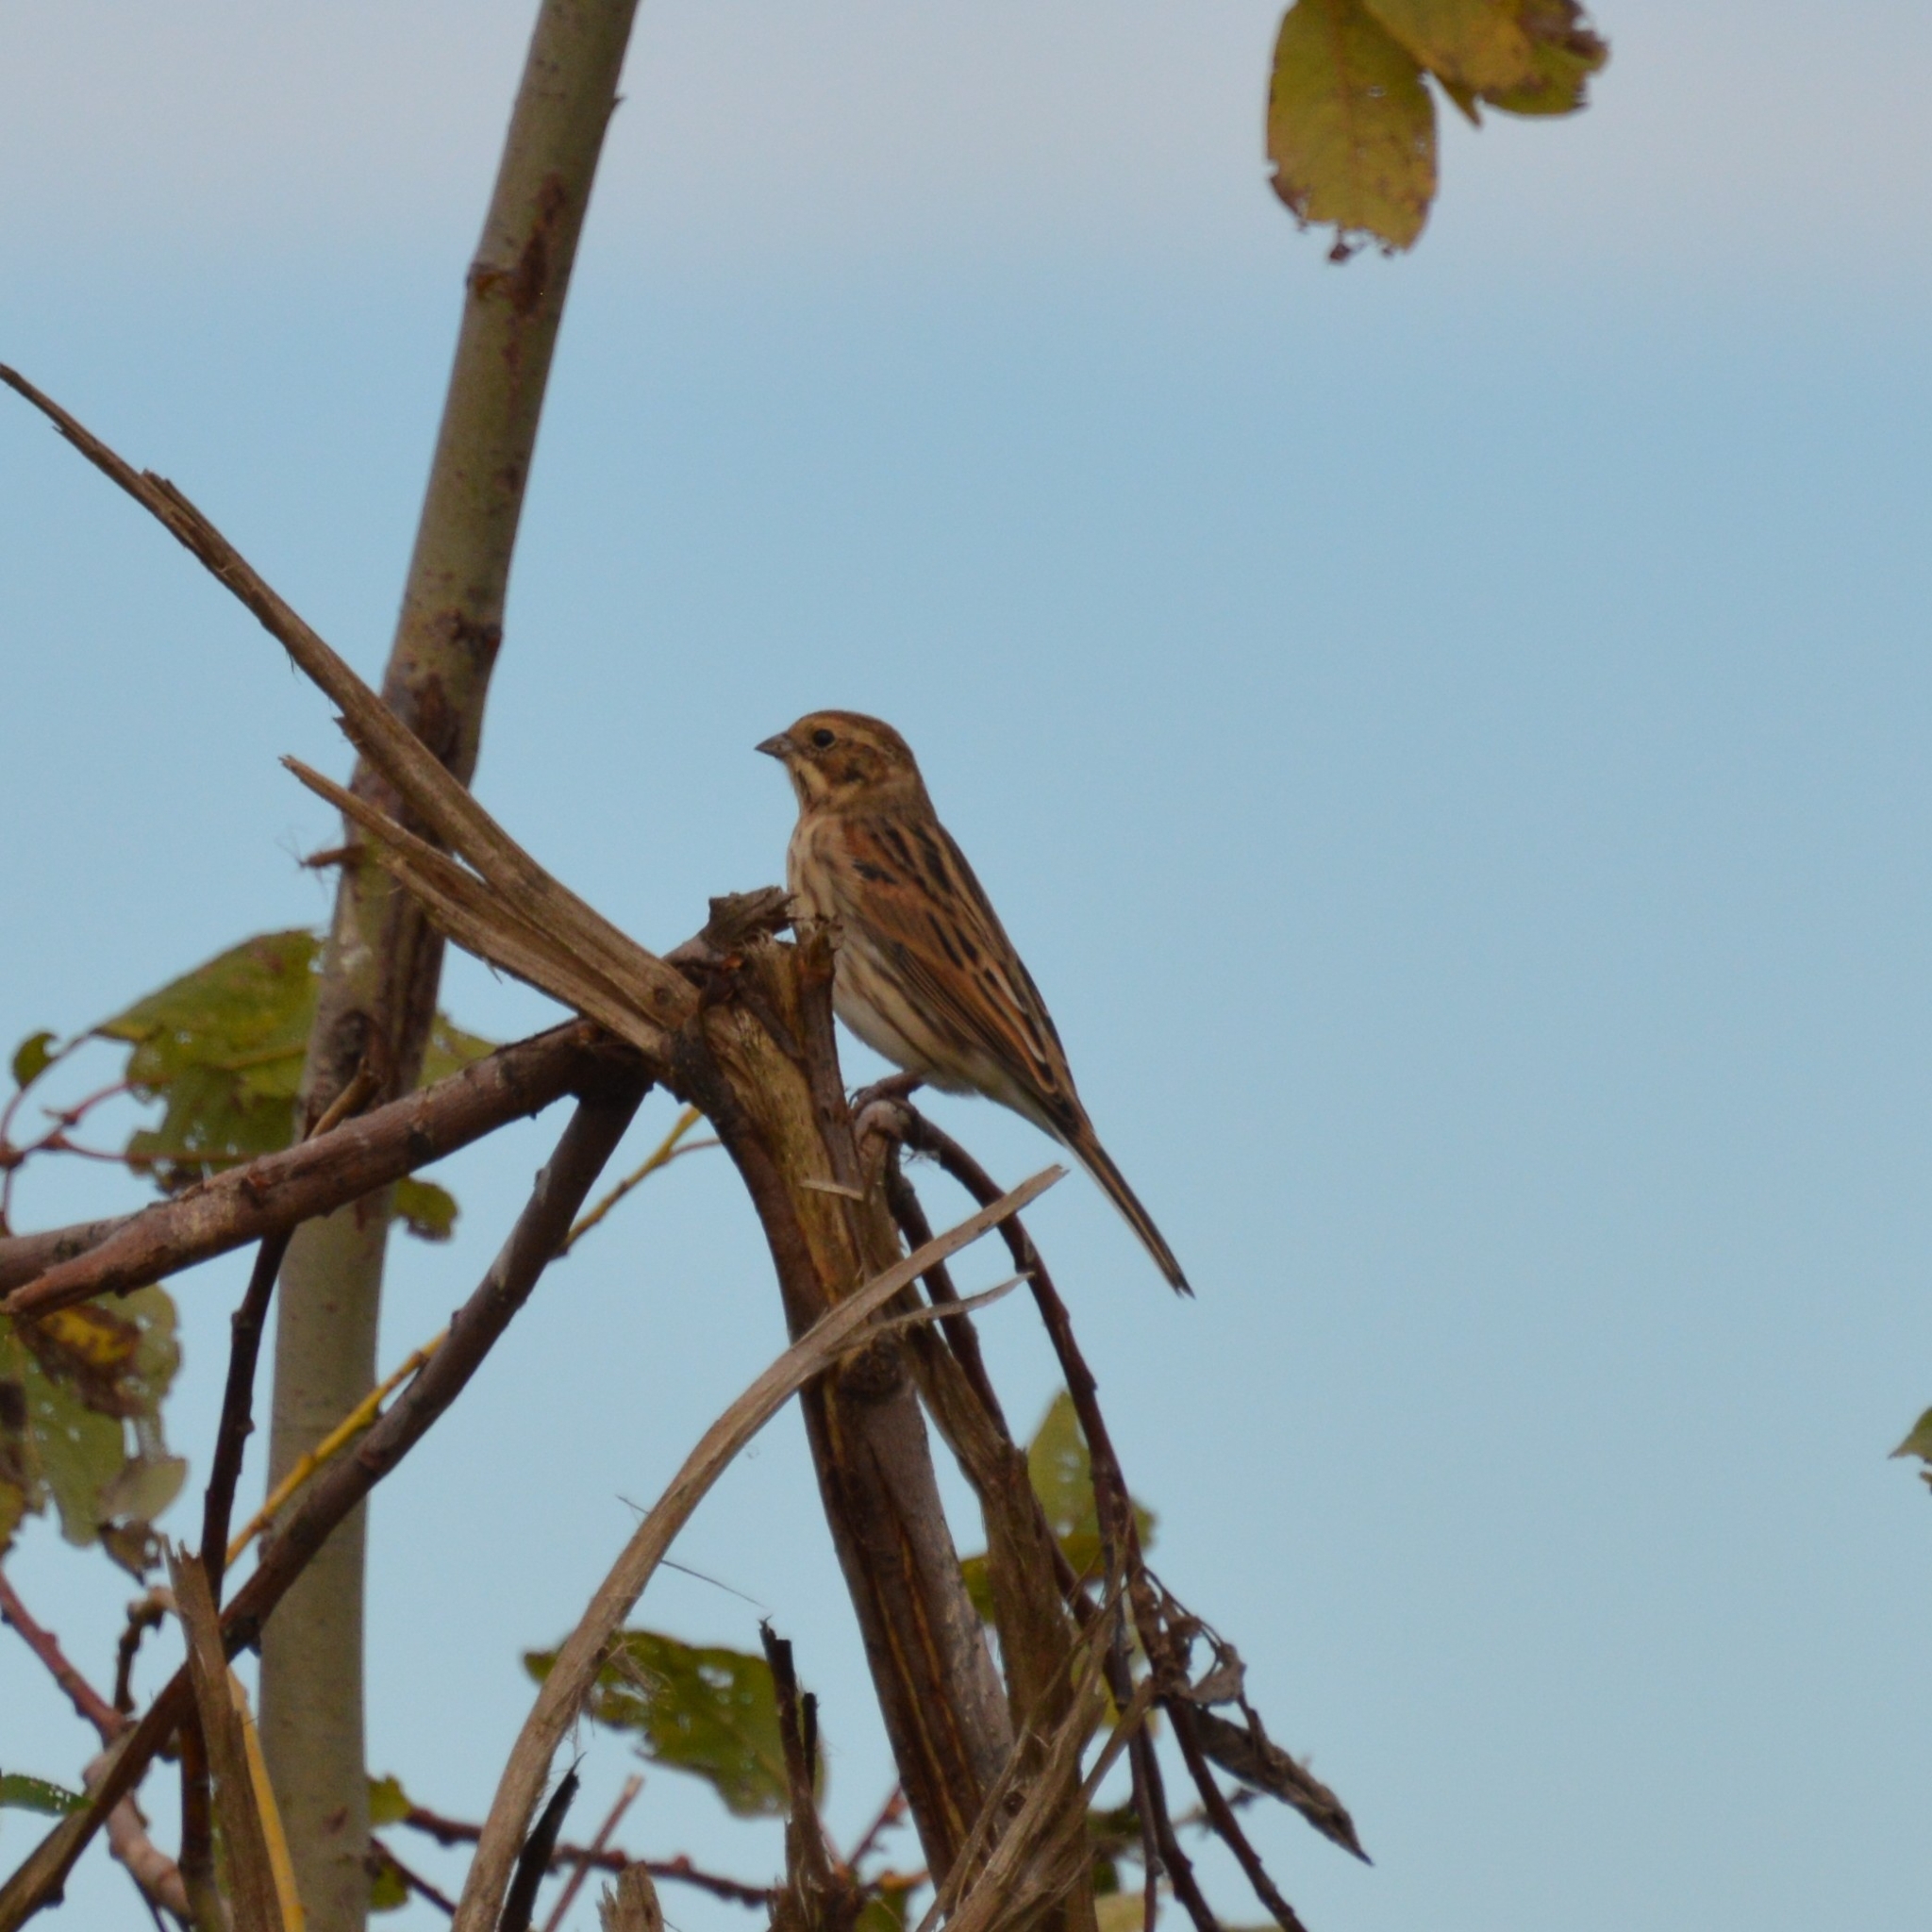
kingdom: Animalia
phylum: Chordata
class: Aves
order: Passeriformes
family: Emberizidae
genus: Emberiza
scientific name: Emberiza schoeniclus
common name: Reed bunting
